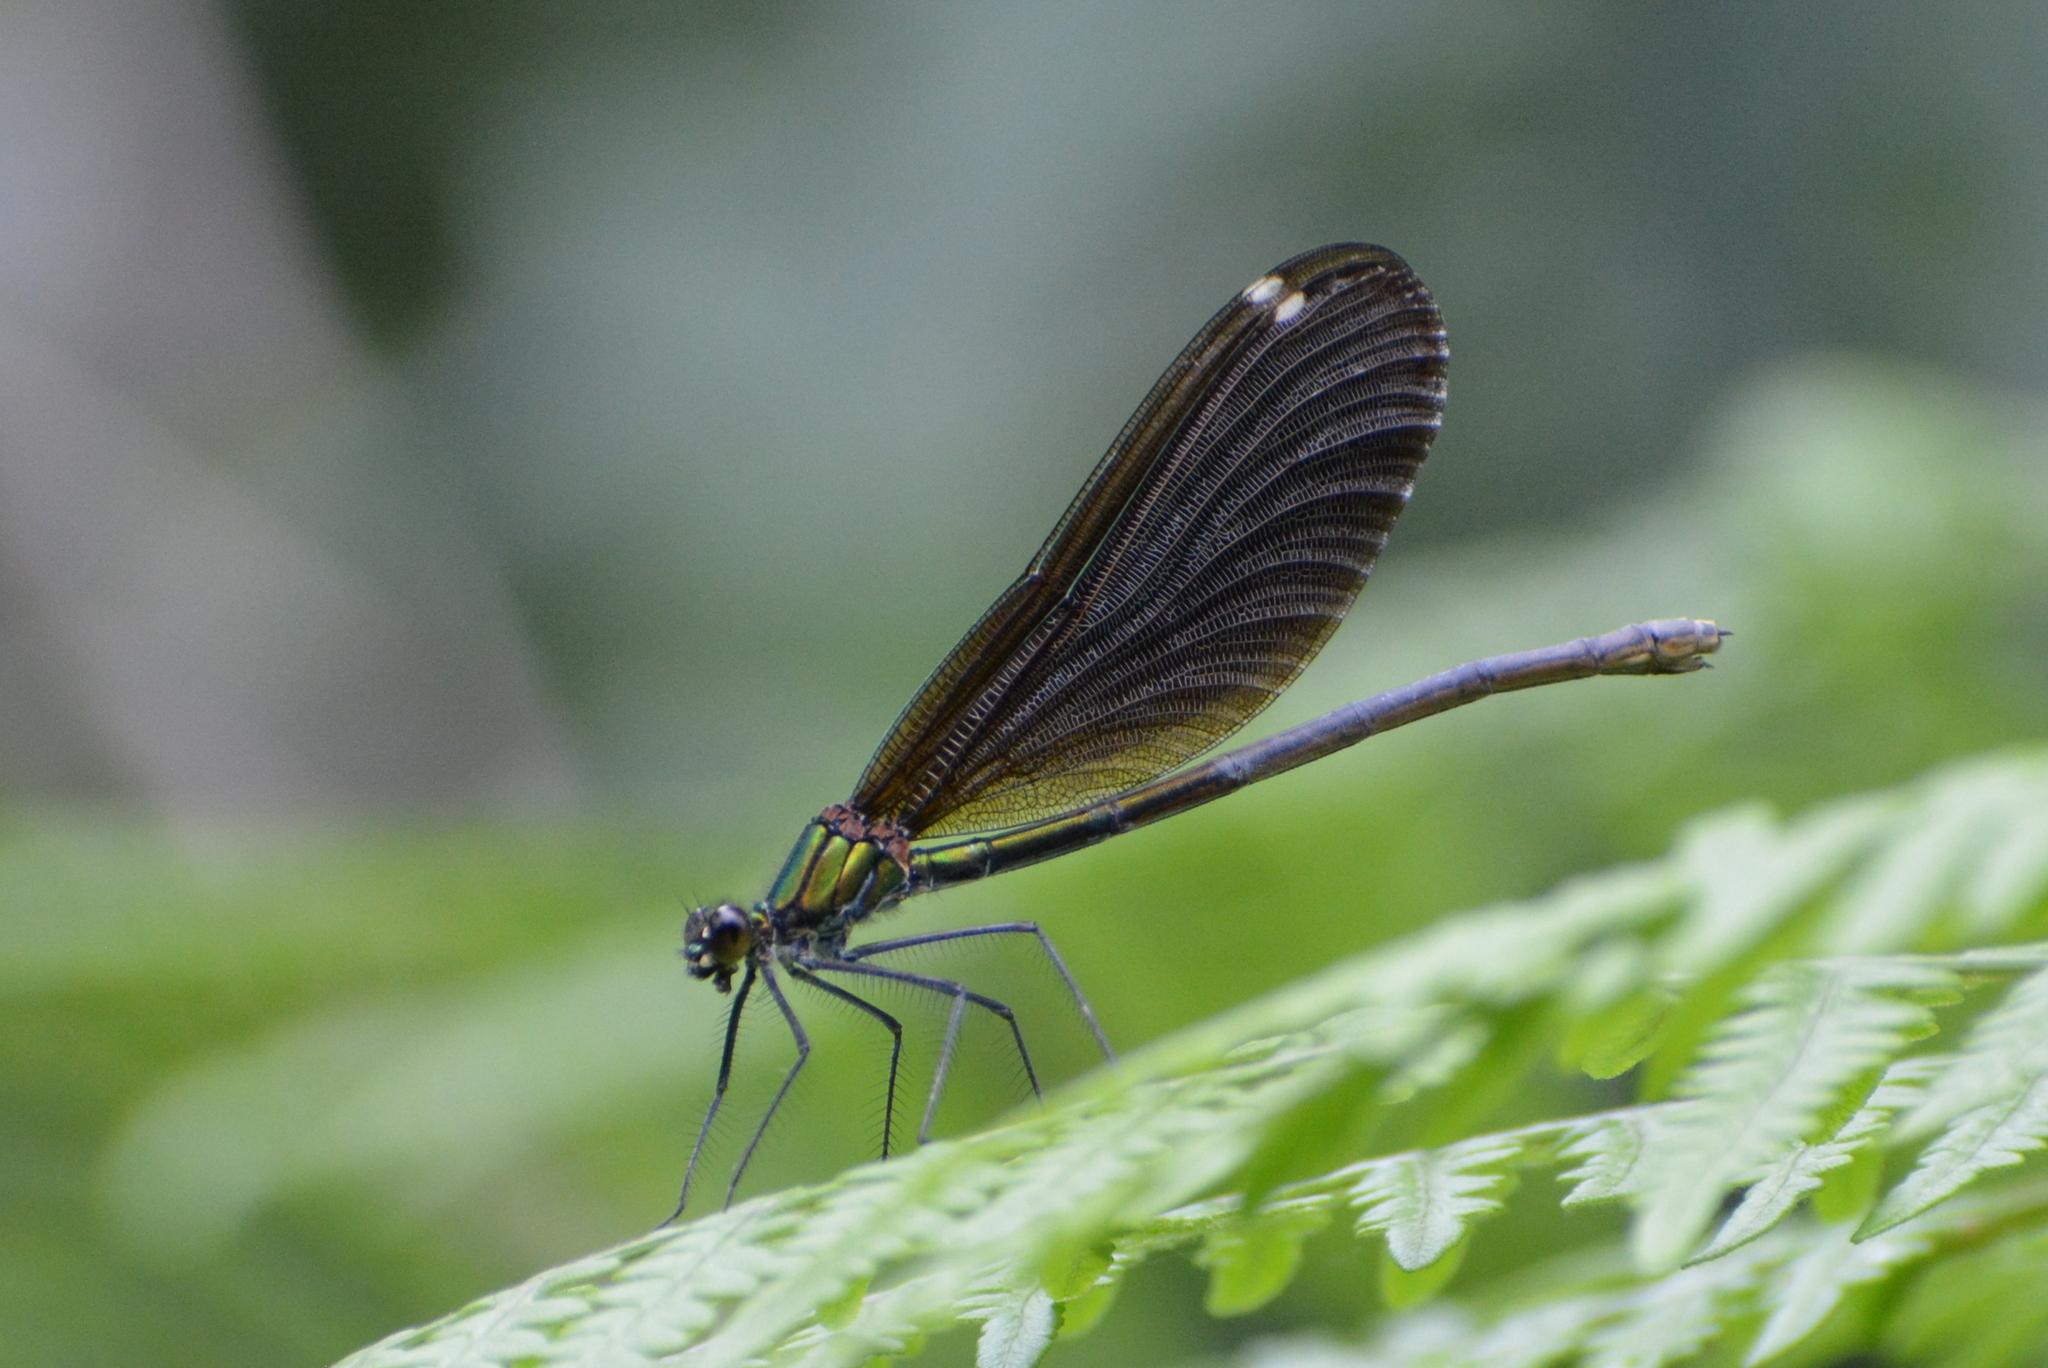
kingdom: Animalia
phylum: Arthropoda
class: Insecta
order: Odonata
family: Calopterygidae
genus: Calopteryx
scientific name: Calopteryx virgo
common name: Beautiful demoiselle
